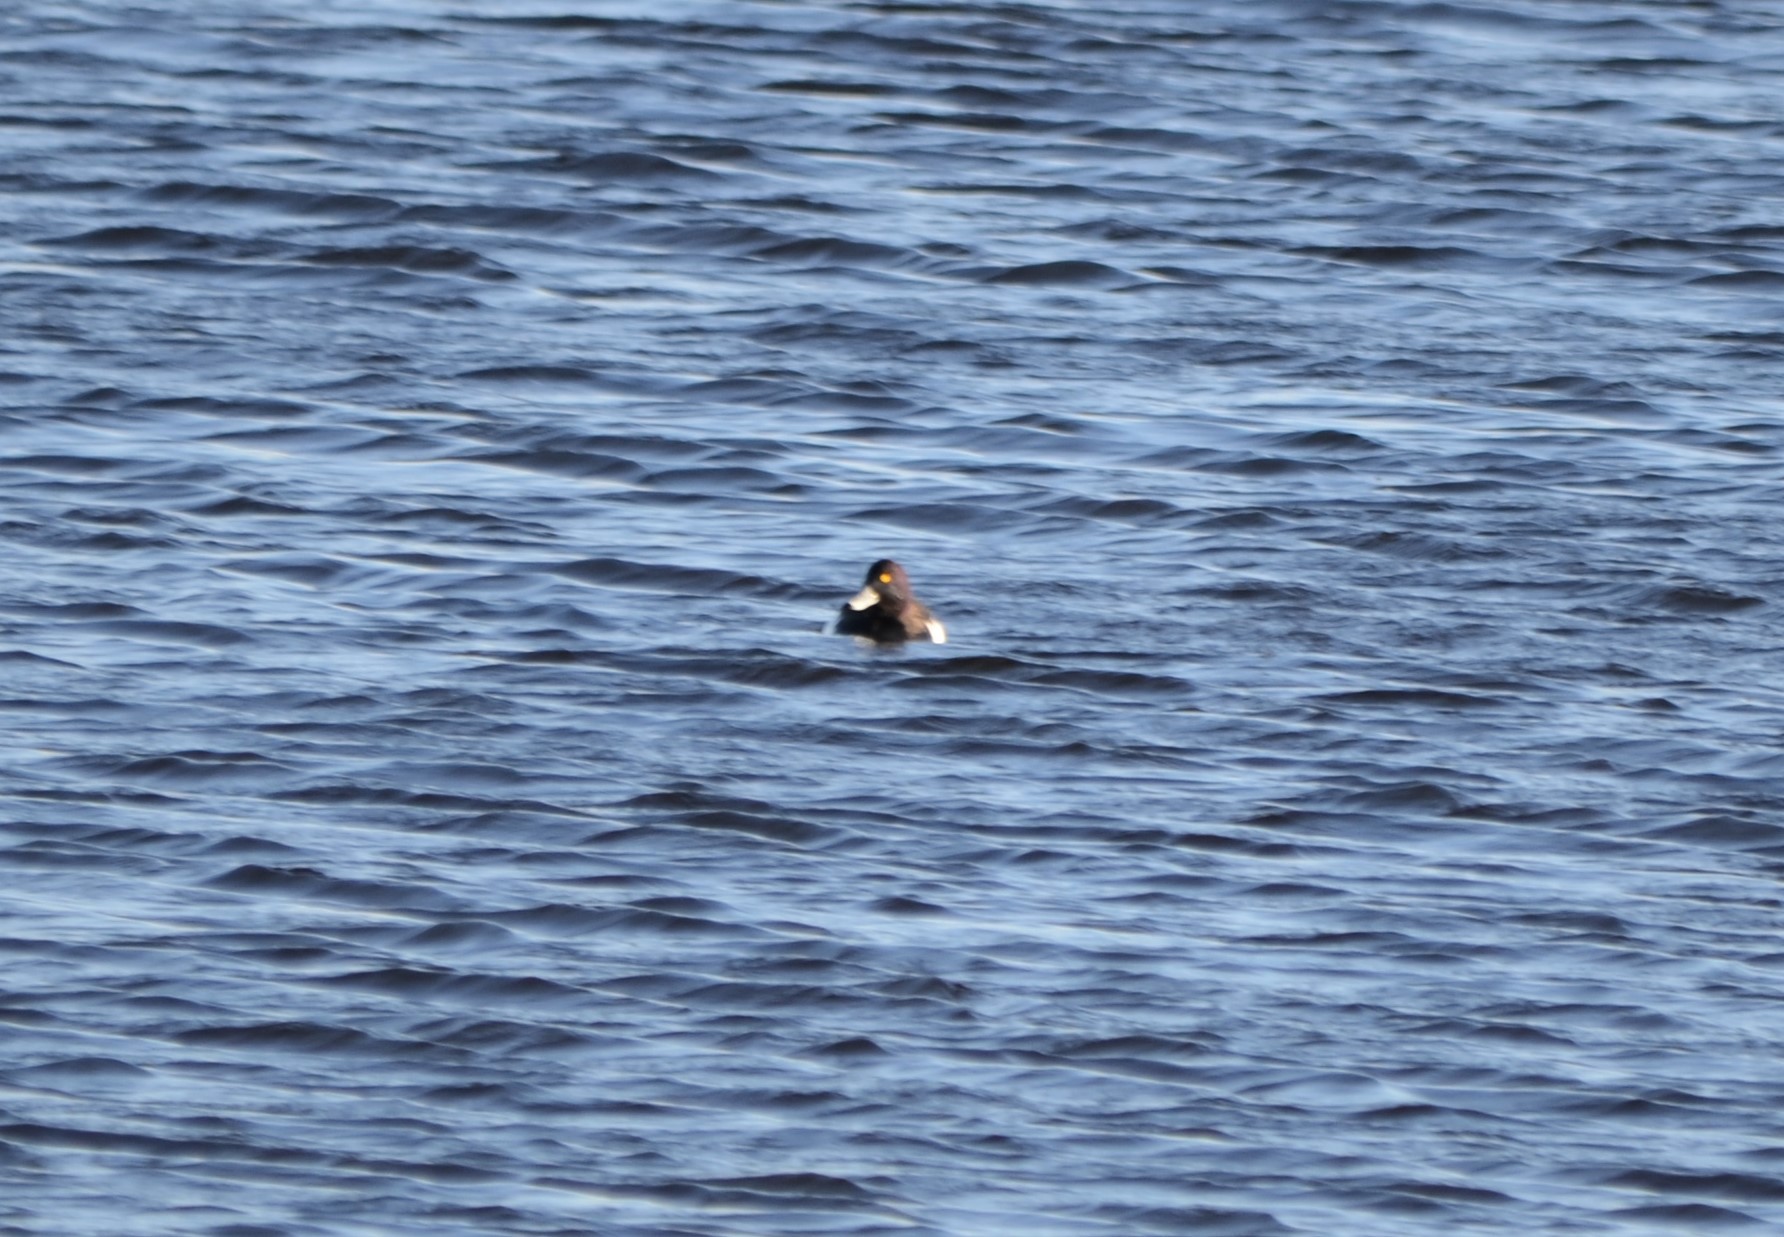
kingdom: Animalia
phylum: Chordata
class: Aves
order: Anseriformes
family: Anatidae
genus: Aythya
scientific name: Aythya fuligula
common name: Tufted duck
